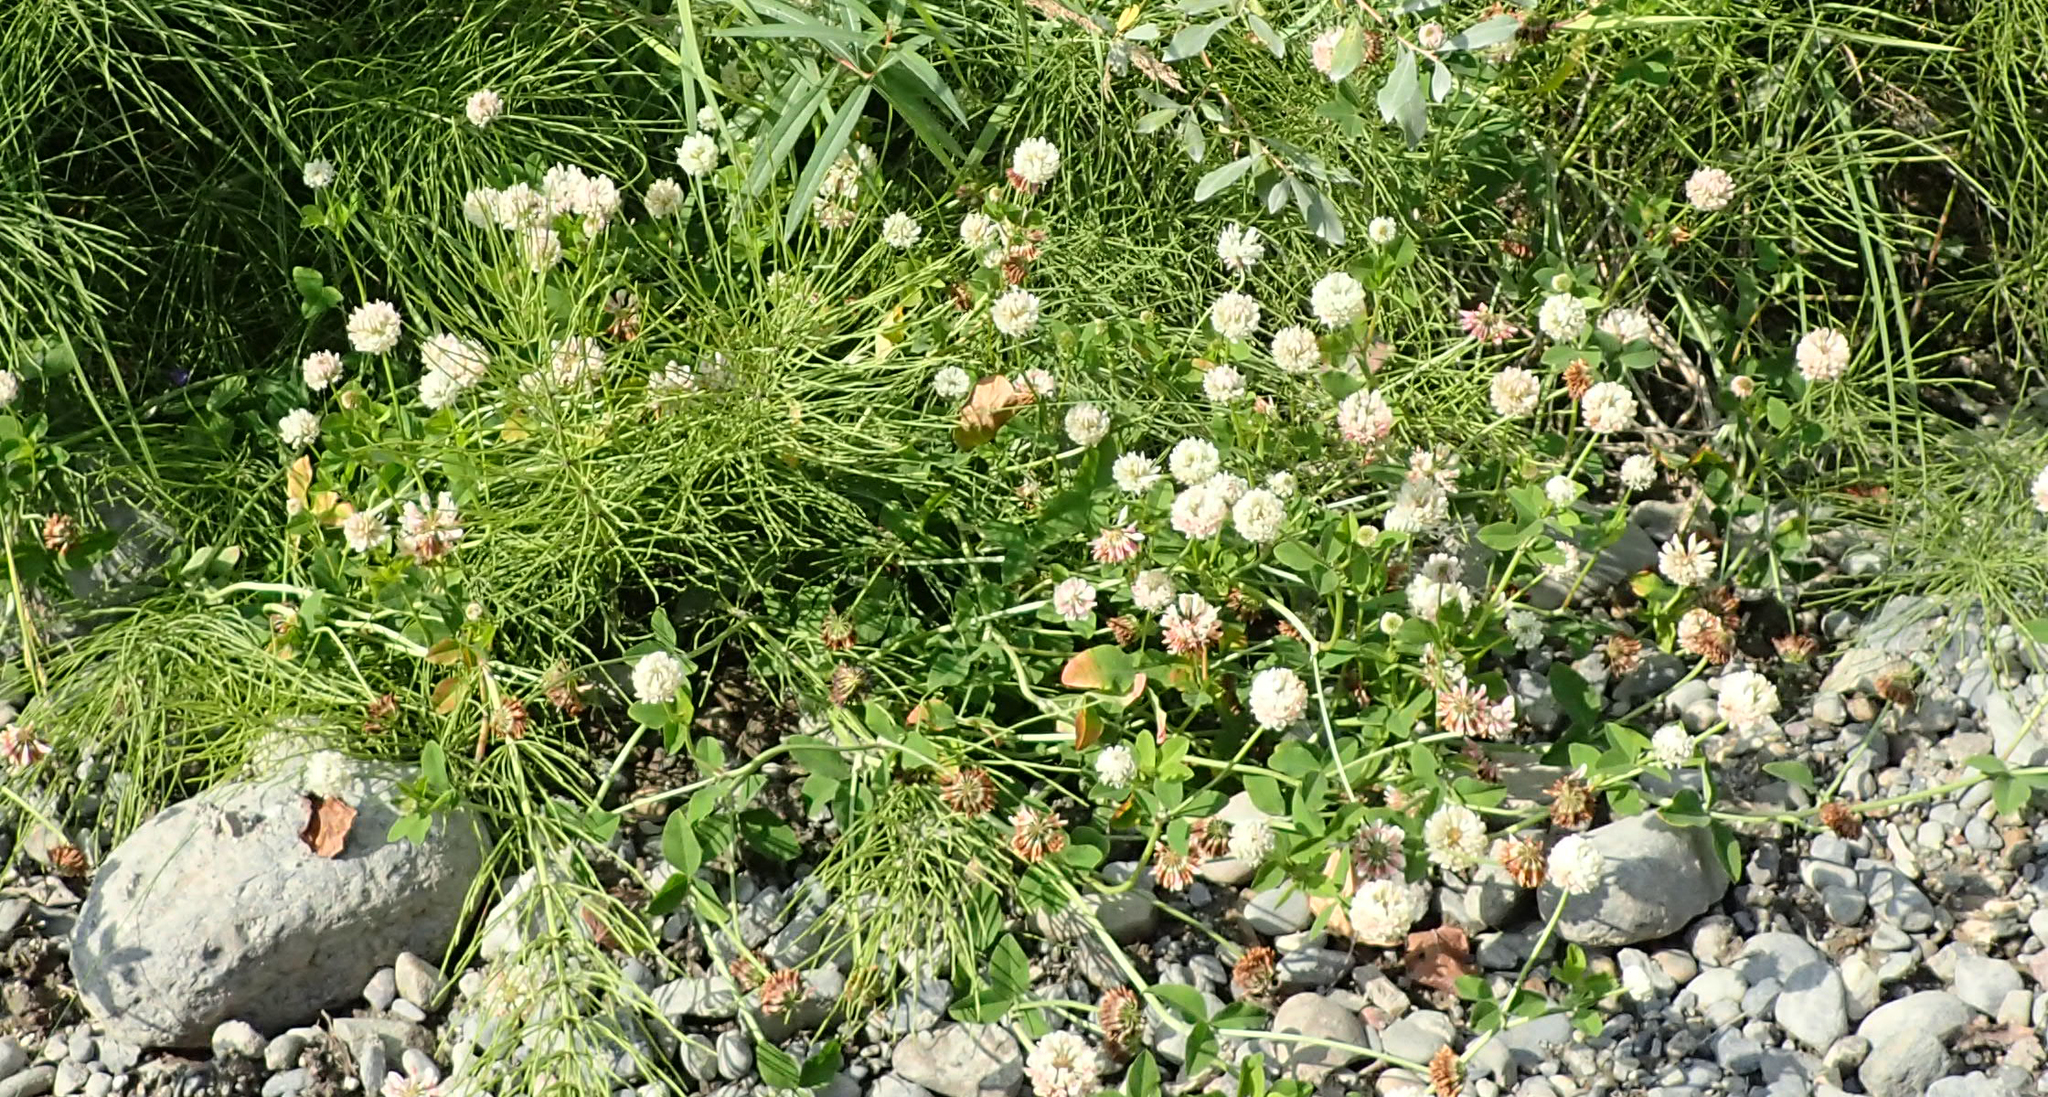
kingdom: Plantae
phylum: Tracheophyta
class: Magnoliopsida
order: Fabales
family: Fabaceae
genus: Trifolium
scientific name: Trifolium hybridum
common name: Alsike clover
